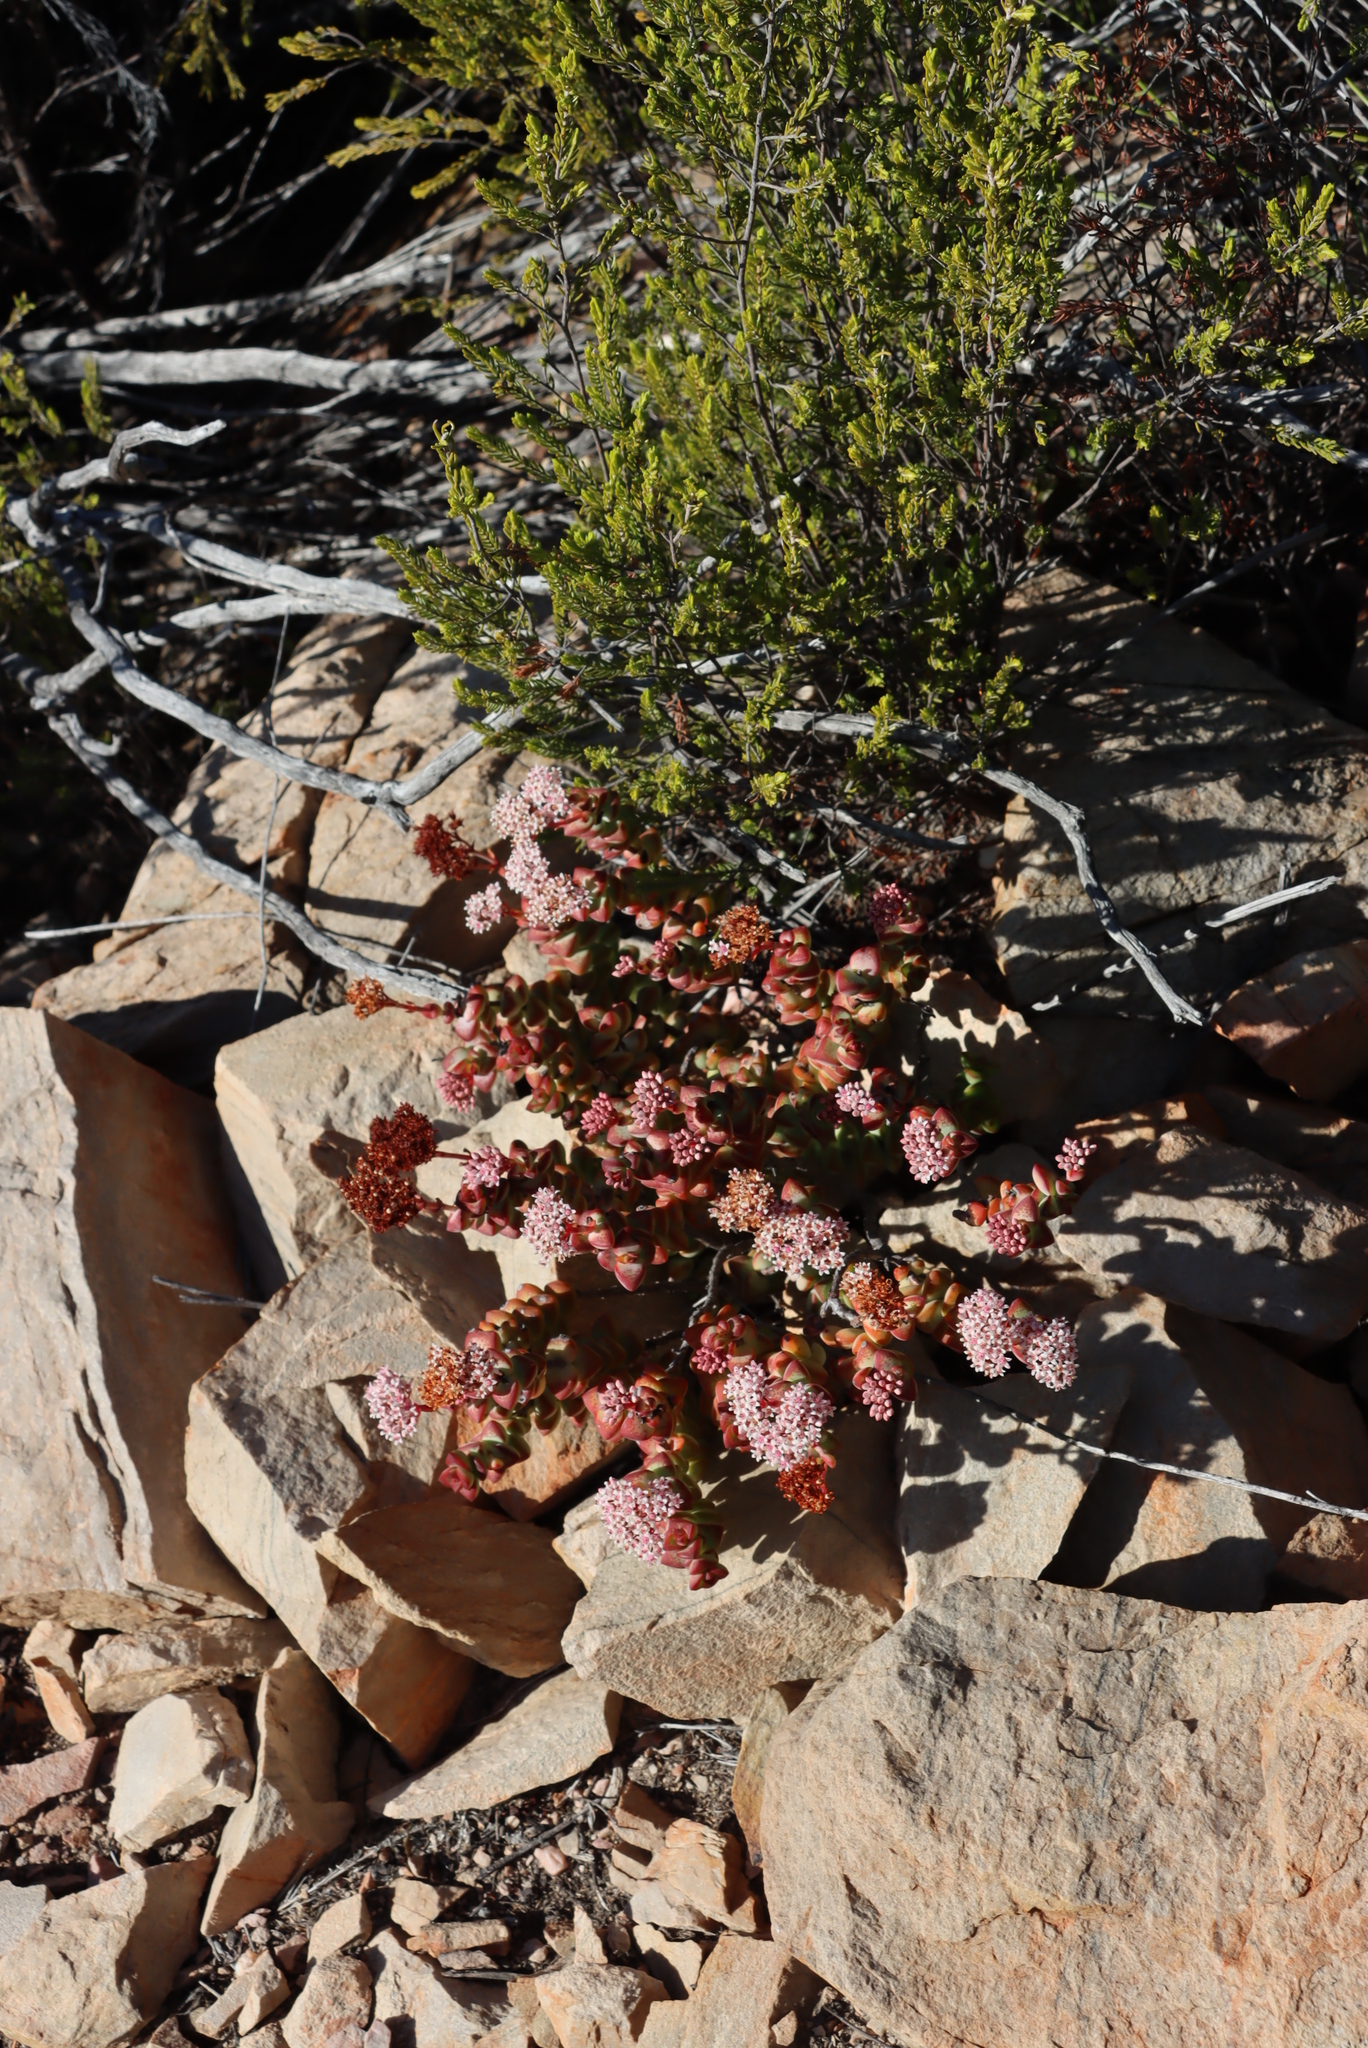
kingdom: Plantae
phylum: Tracheophyta
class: Magnoliopsida
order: Saxifragales
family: Crassulaceae
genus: Crassula
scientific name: Crassula rupestris
